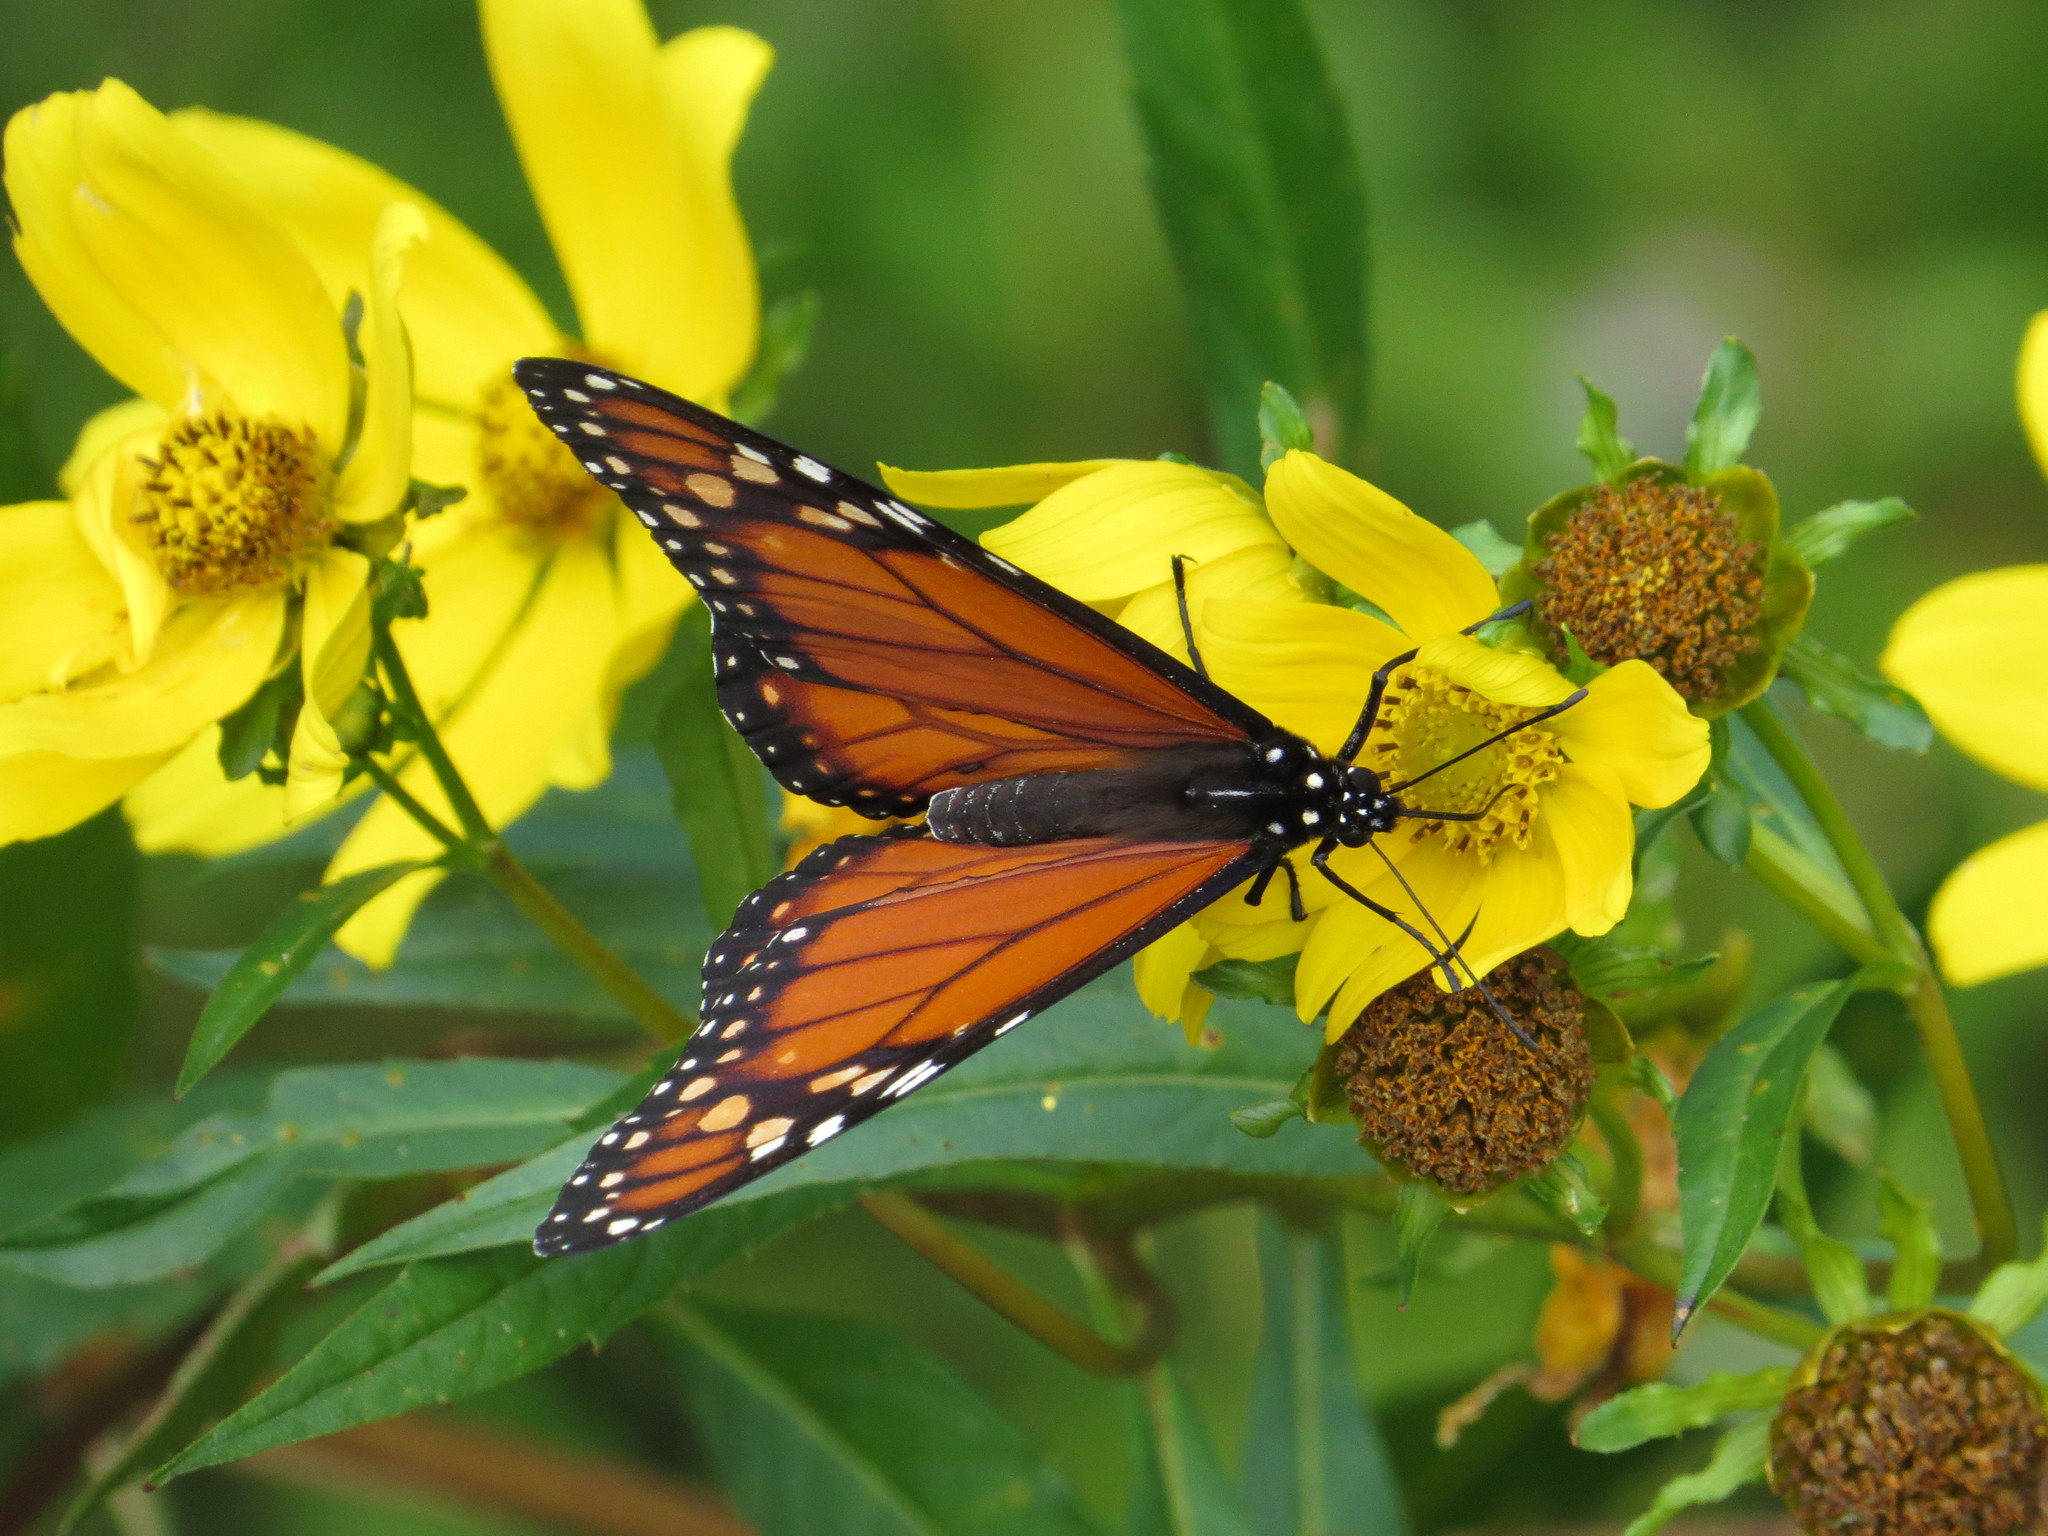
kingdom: Animalia
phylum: Arthropoda
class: Insecta
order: Lepidoptera
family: Nymphalidae
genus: Danaus
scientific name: Danaus erippus
